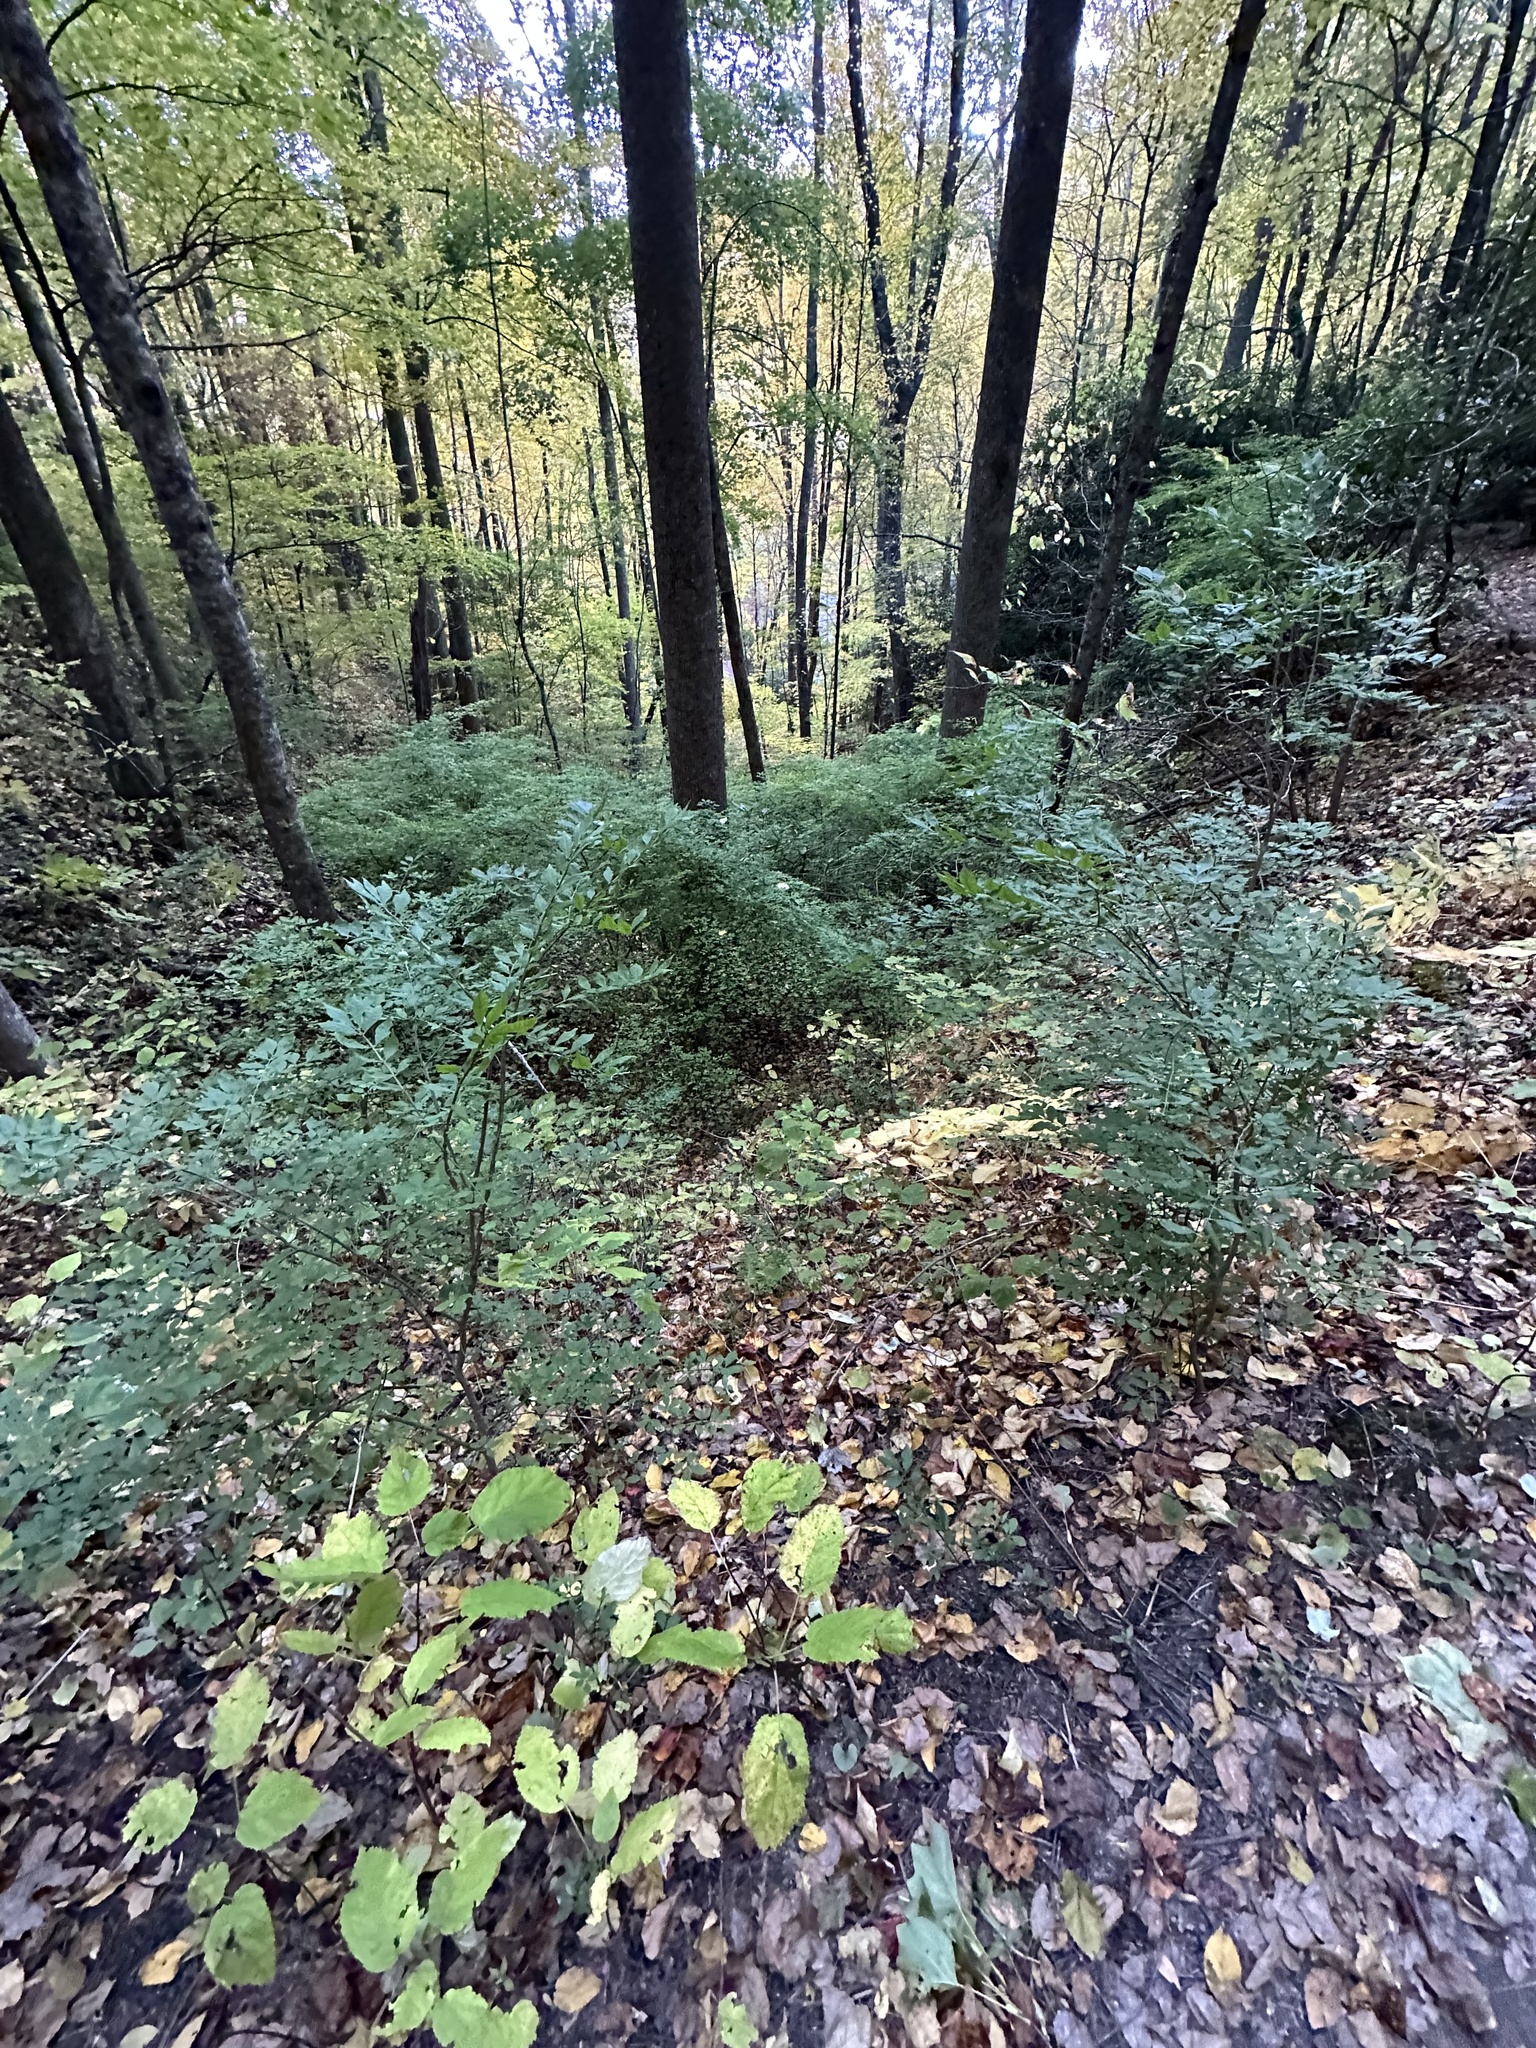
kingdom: Plantae
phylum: Tracheophyta
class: Magnoliopsida
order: Celastrales
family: Celastraceae
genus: Euonymus
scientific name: Euonymus alatus
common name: Winged euonymus
